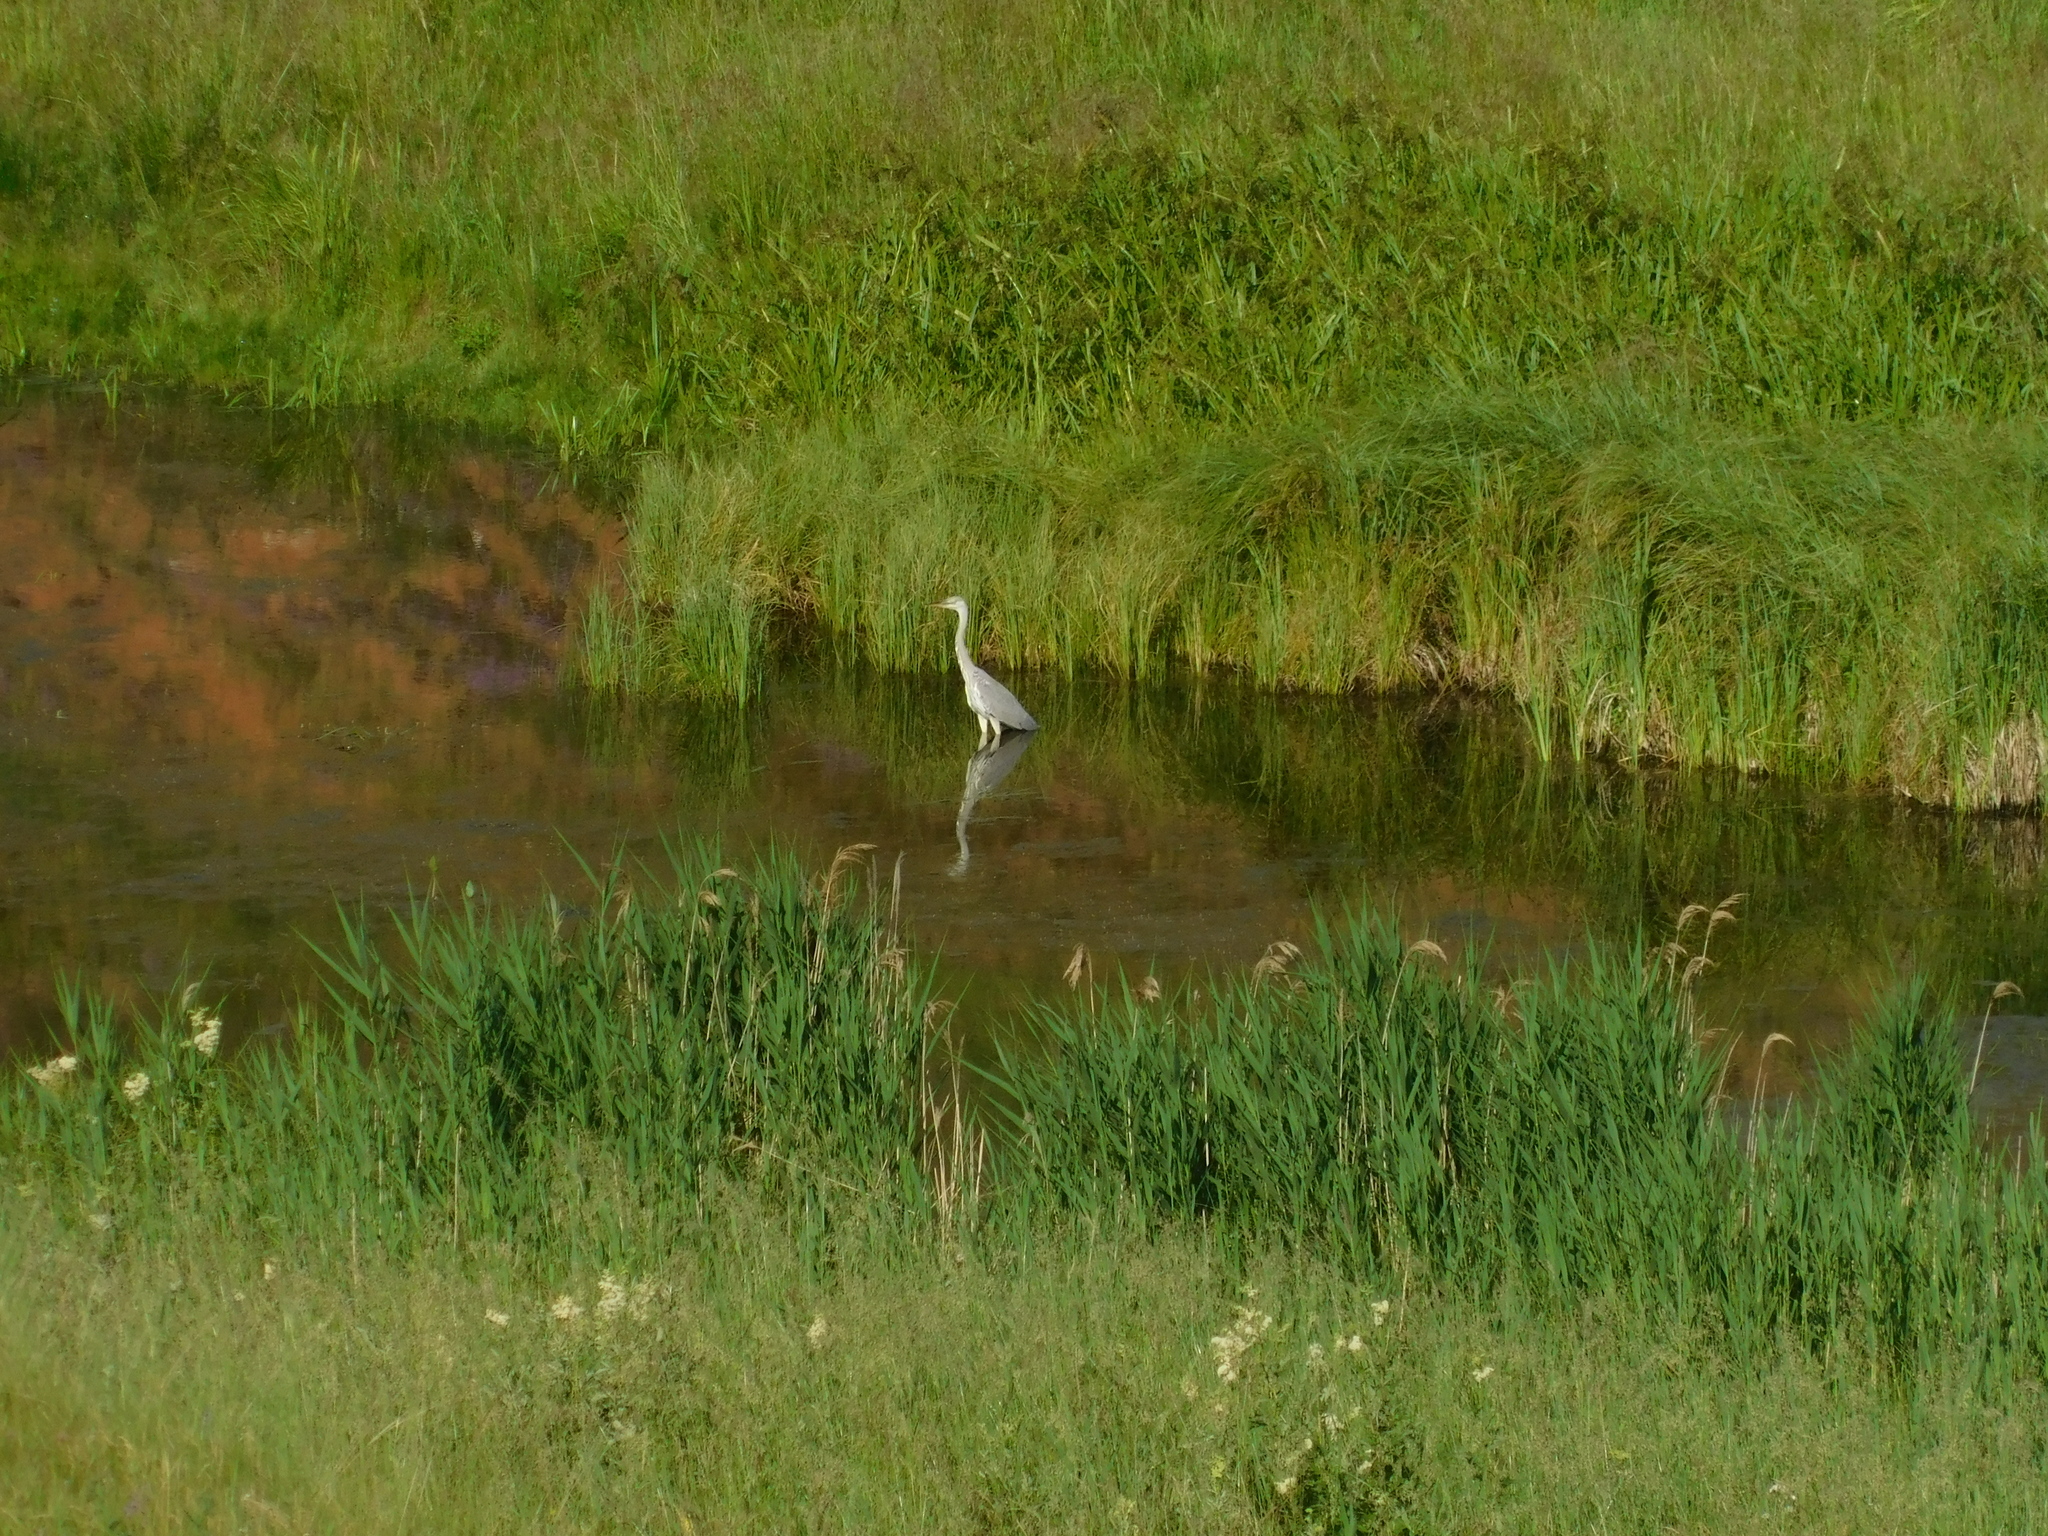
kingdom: Animalia
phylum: Chordata
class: Aves
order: Pelecaniformes
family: Ardeidae
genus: Ardea
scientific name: Ardea cinerea
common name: Grey heron
